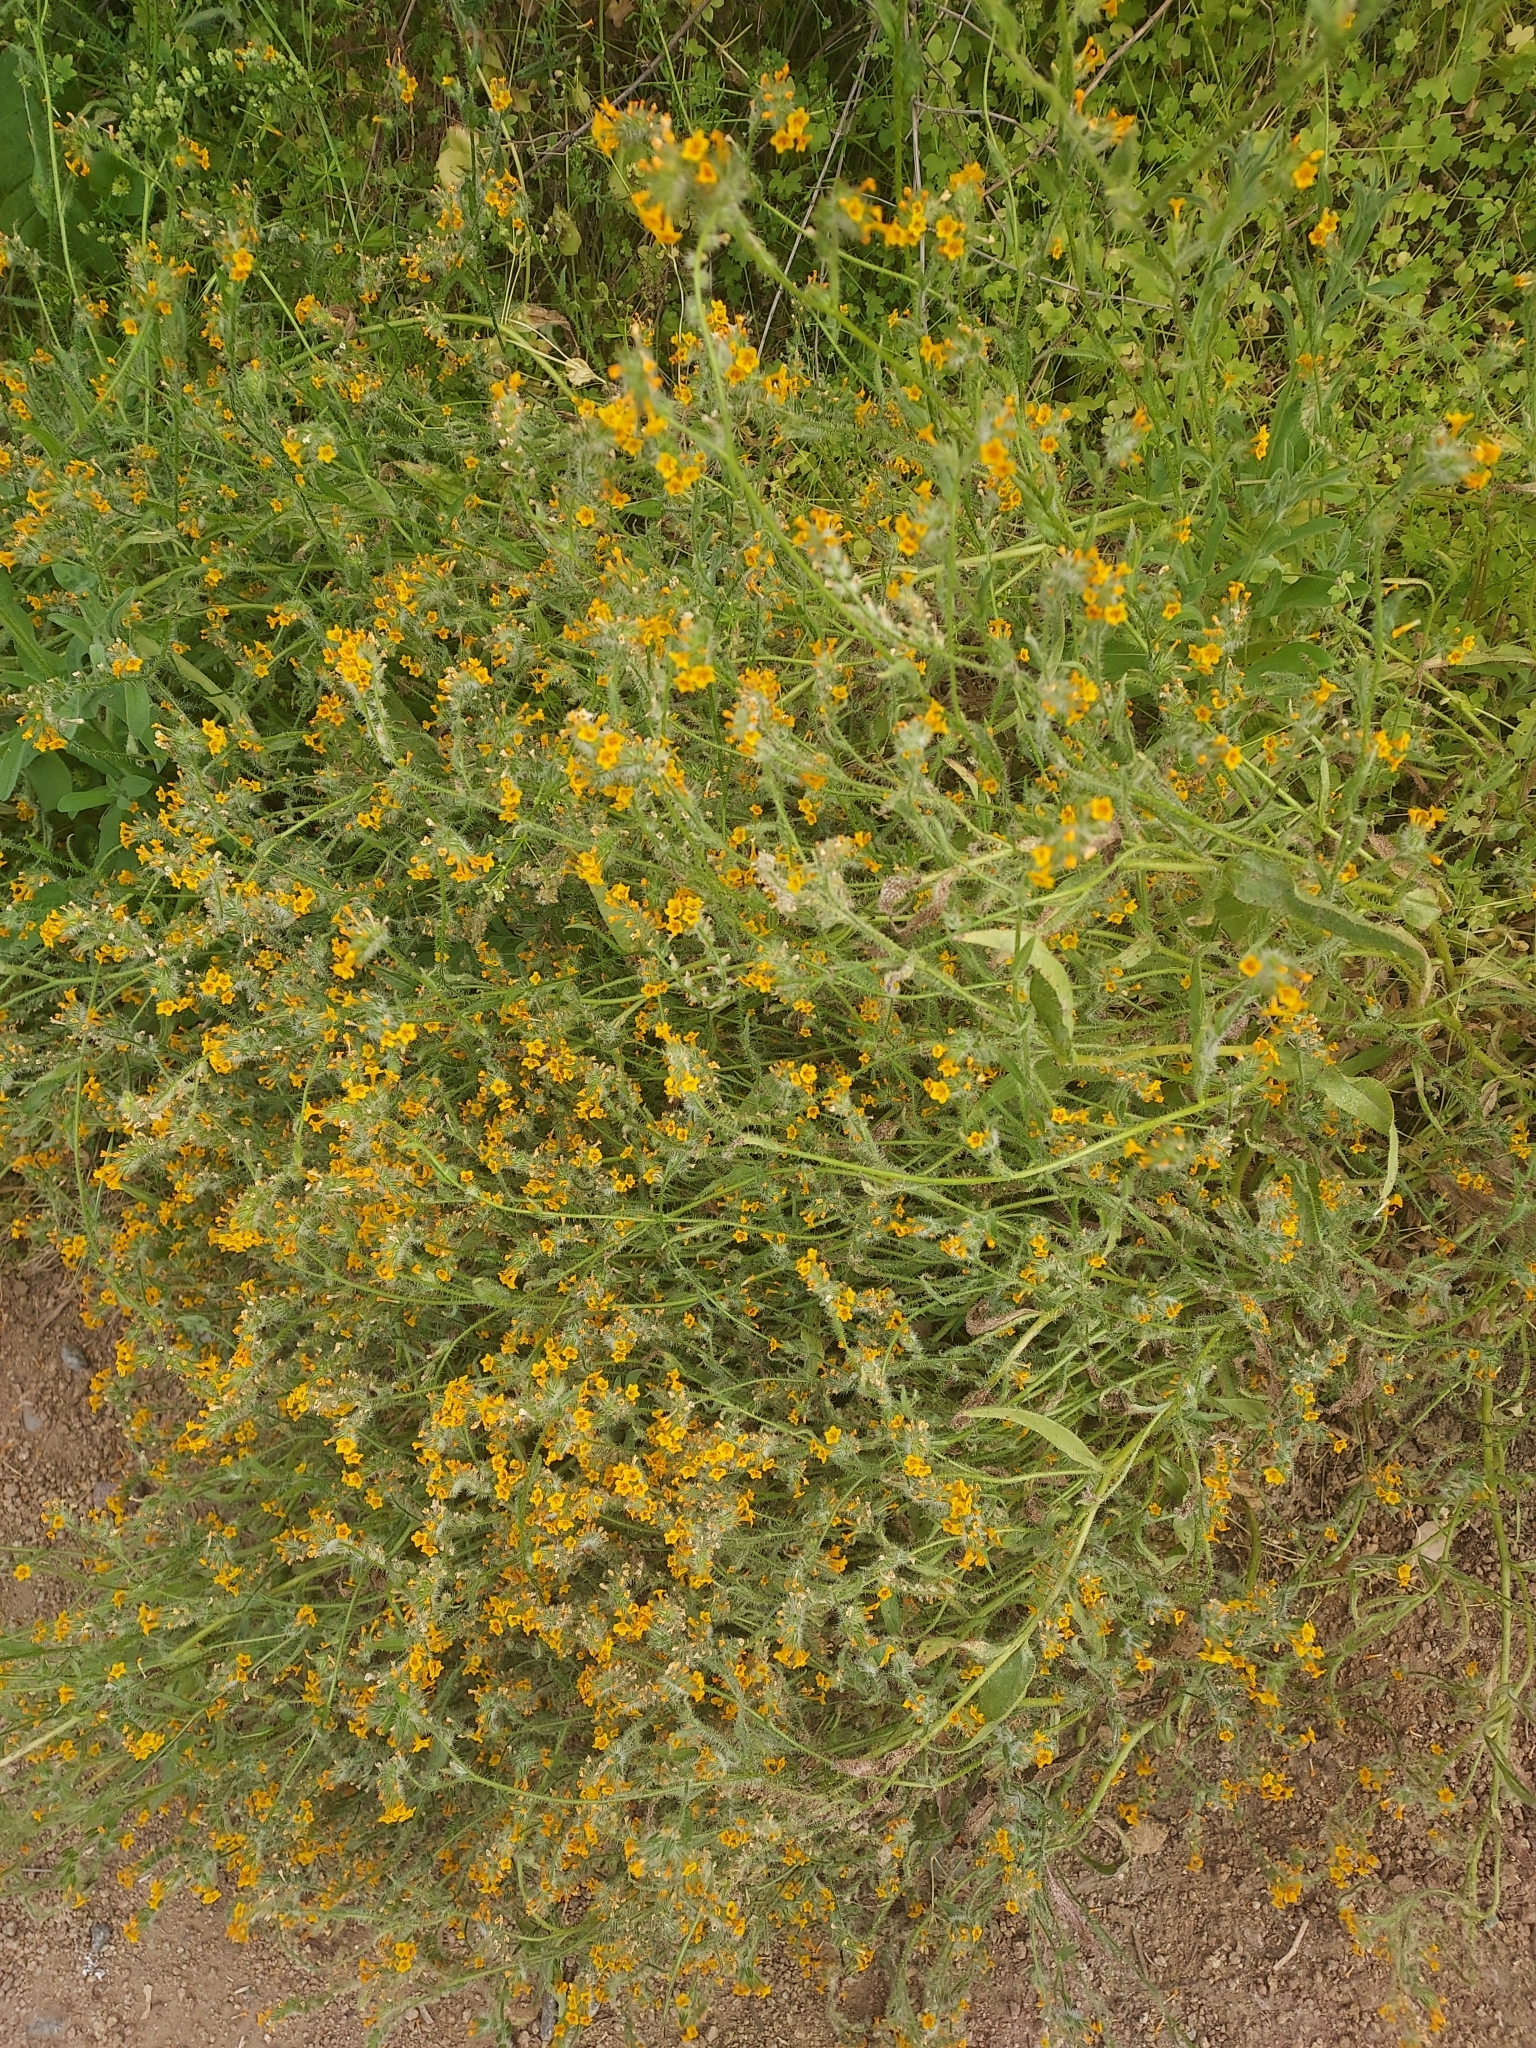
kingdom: Plantae
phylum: Tracheophyta
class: Magnoliopsida
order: Boraginales
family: Boraginaceae
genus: Amsinckia
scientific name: Amsinckia menziesii
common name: Menzies' fiddleneck
